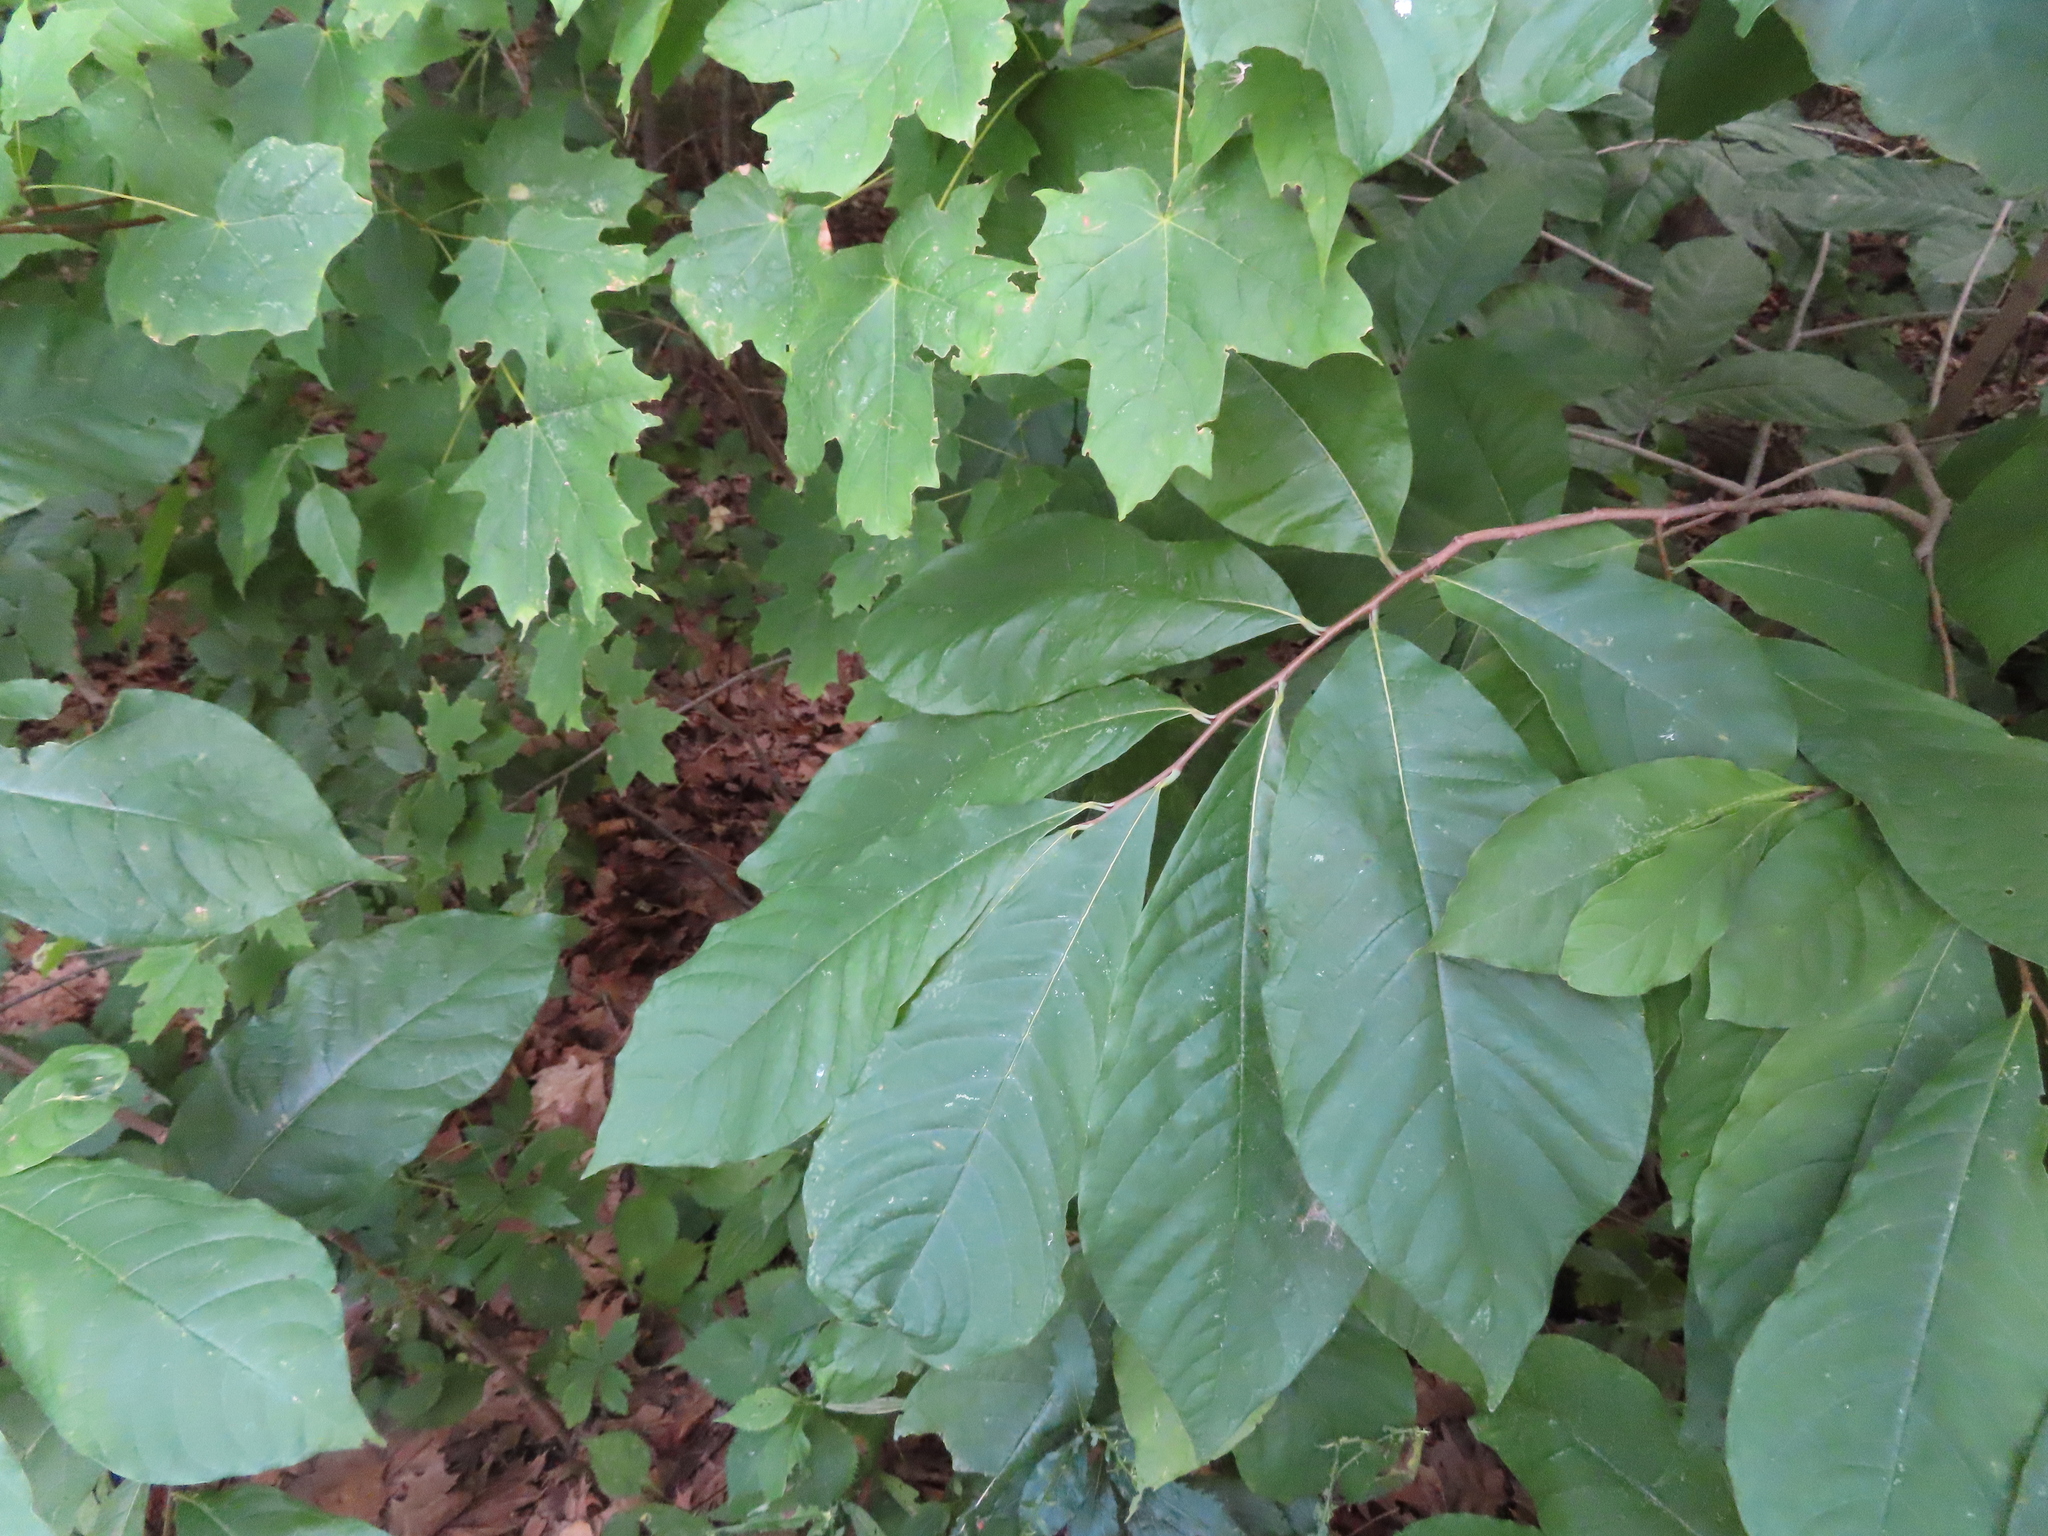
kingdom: Plantae
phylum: Tracheophyta
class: Magnoliopsida
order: Magnoliales
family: Annonaceae
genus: Asimina
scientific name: Asimina triloba
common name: Dog-banana
